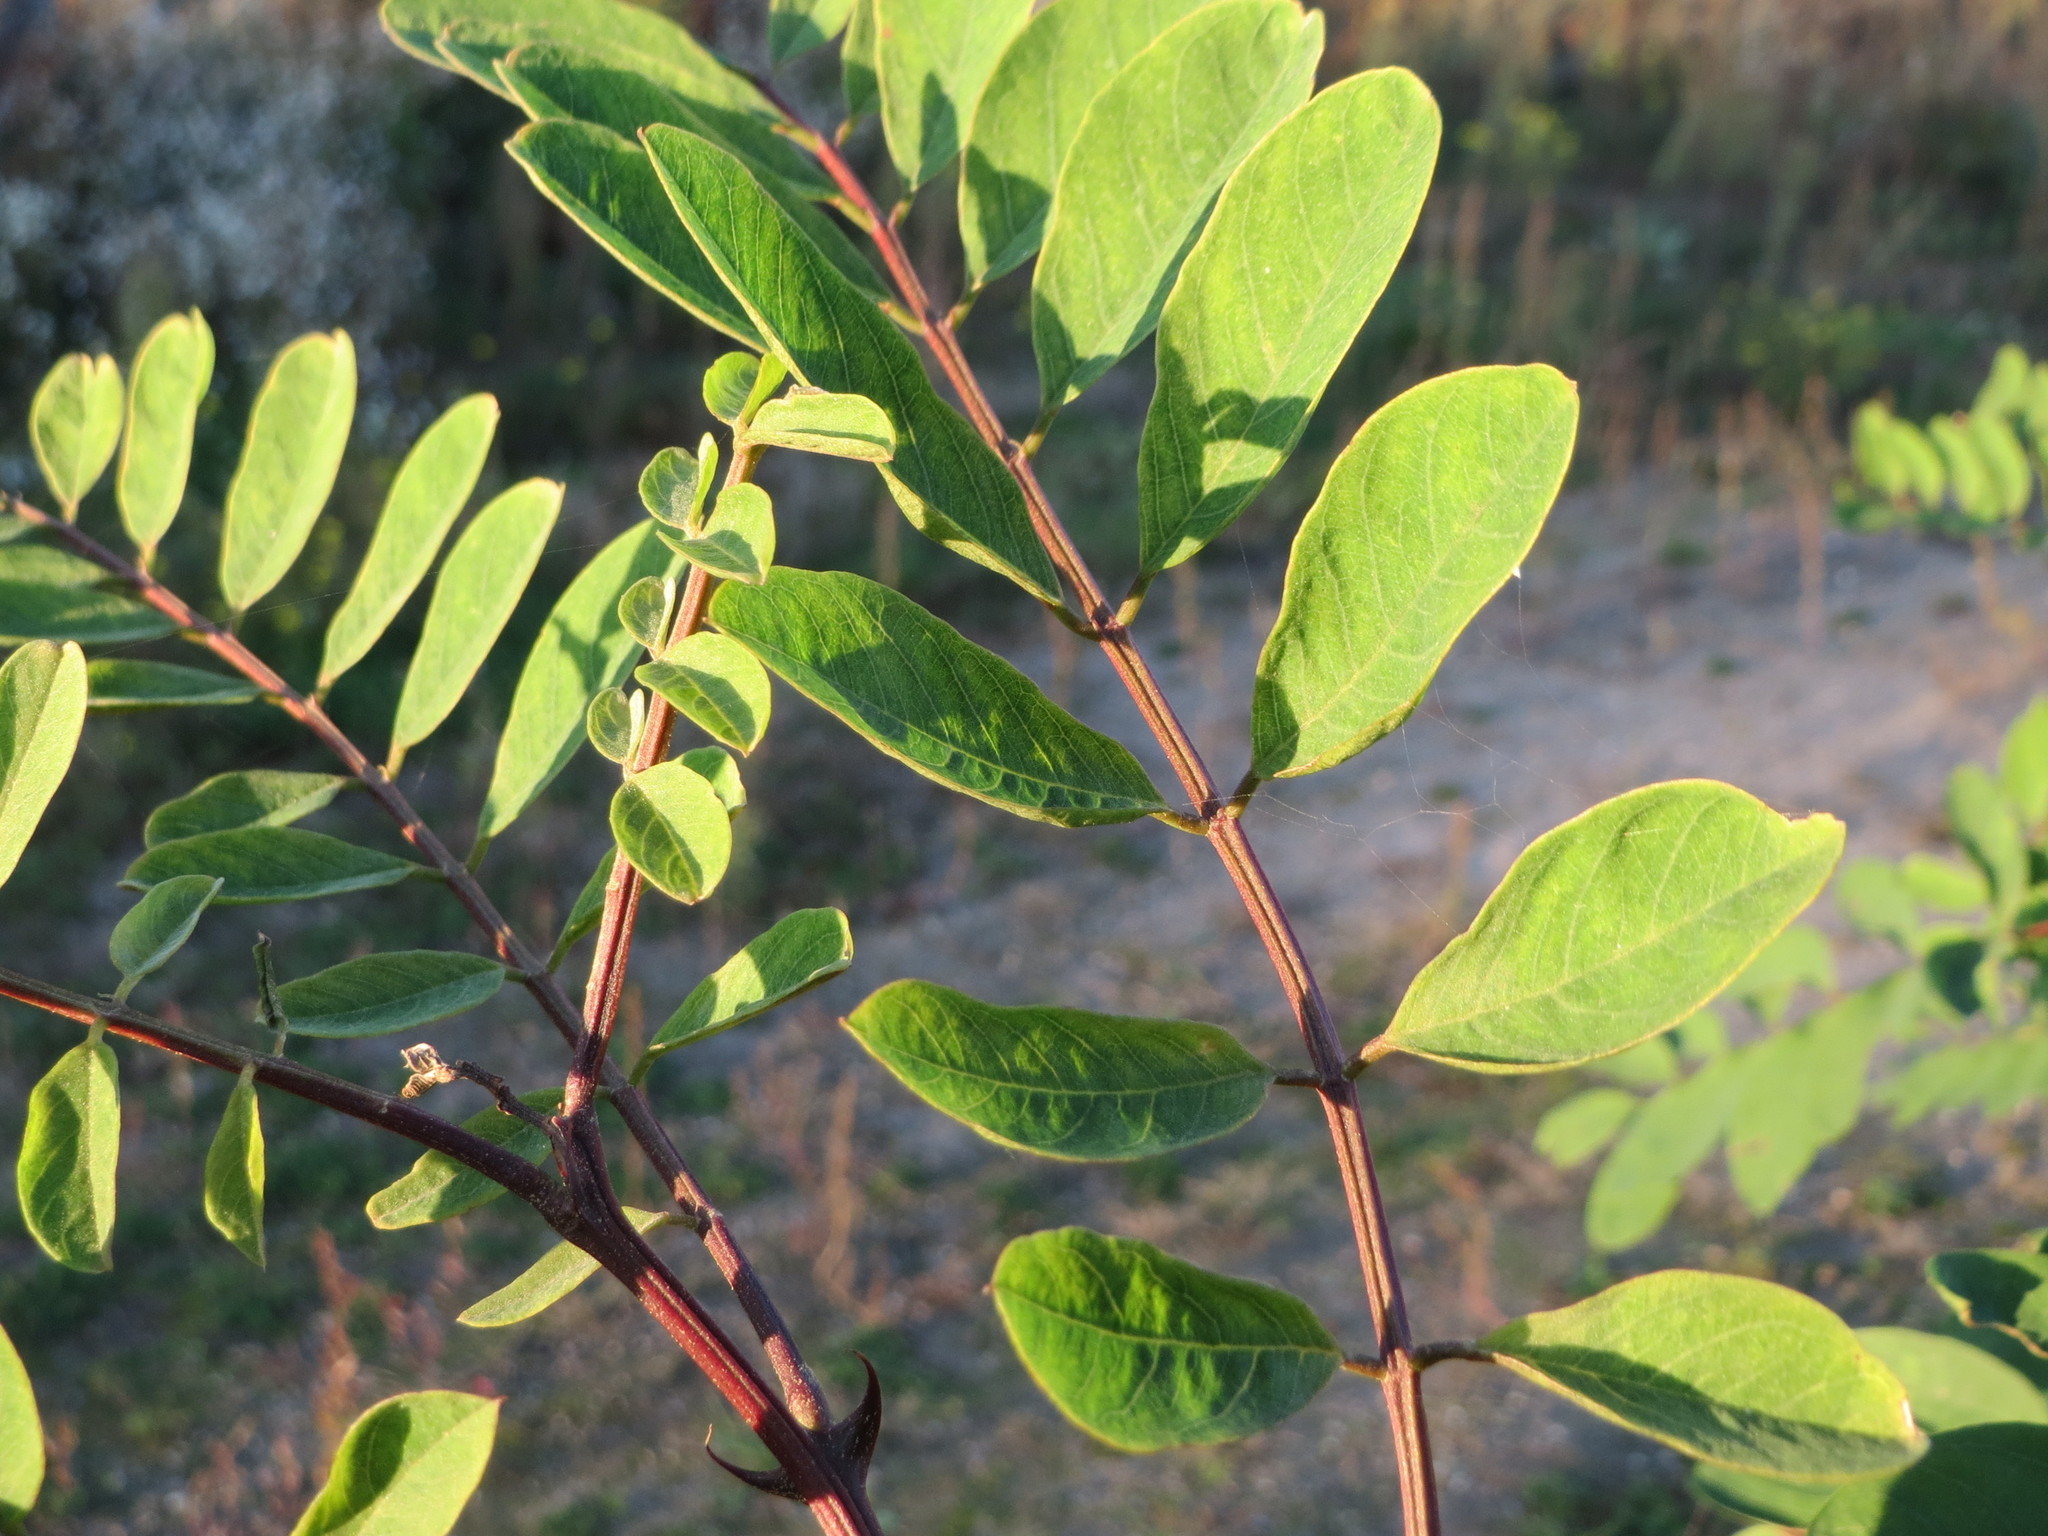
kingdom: Plantae
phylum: Tracheophyta
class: Magnoliopsida
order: Fabales
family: Fabaceae
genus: Robinia
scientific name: Robinia pseudoacacia
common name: Black locust
